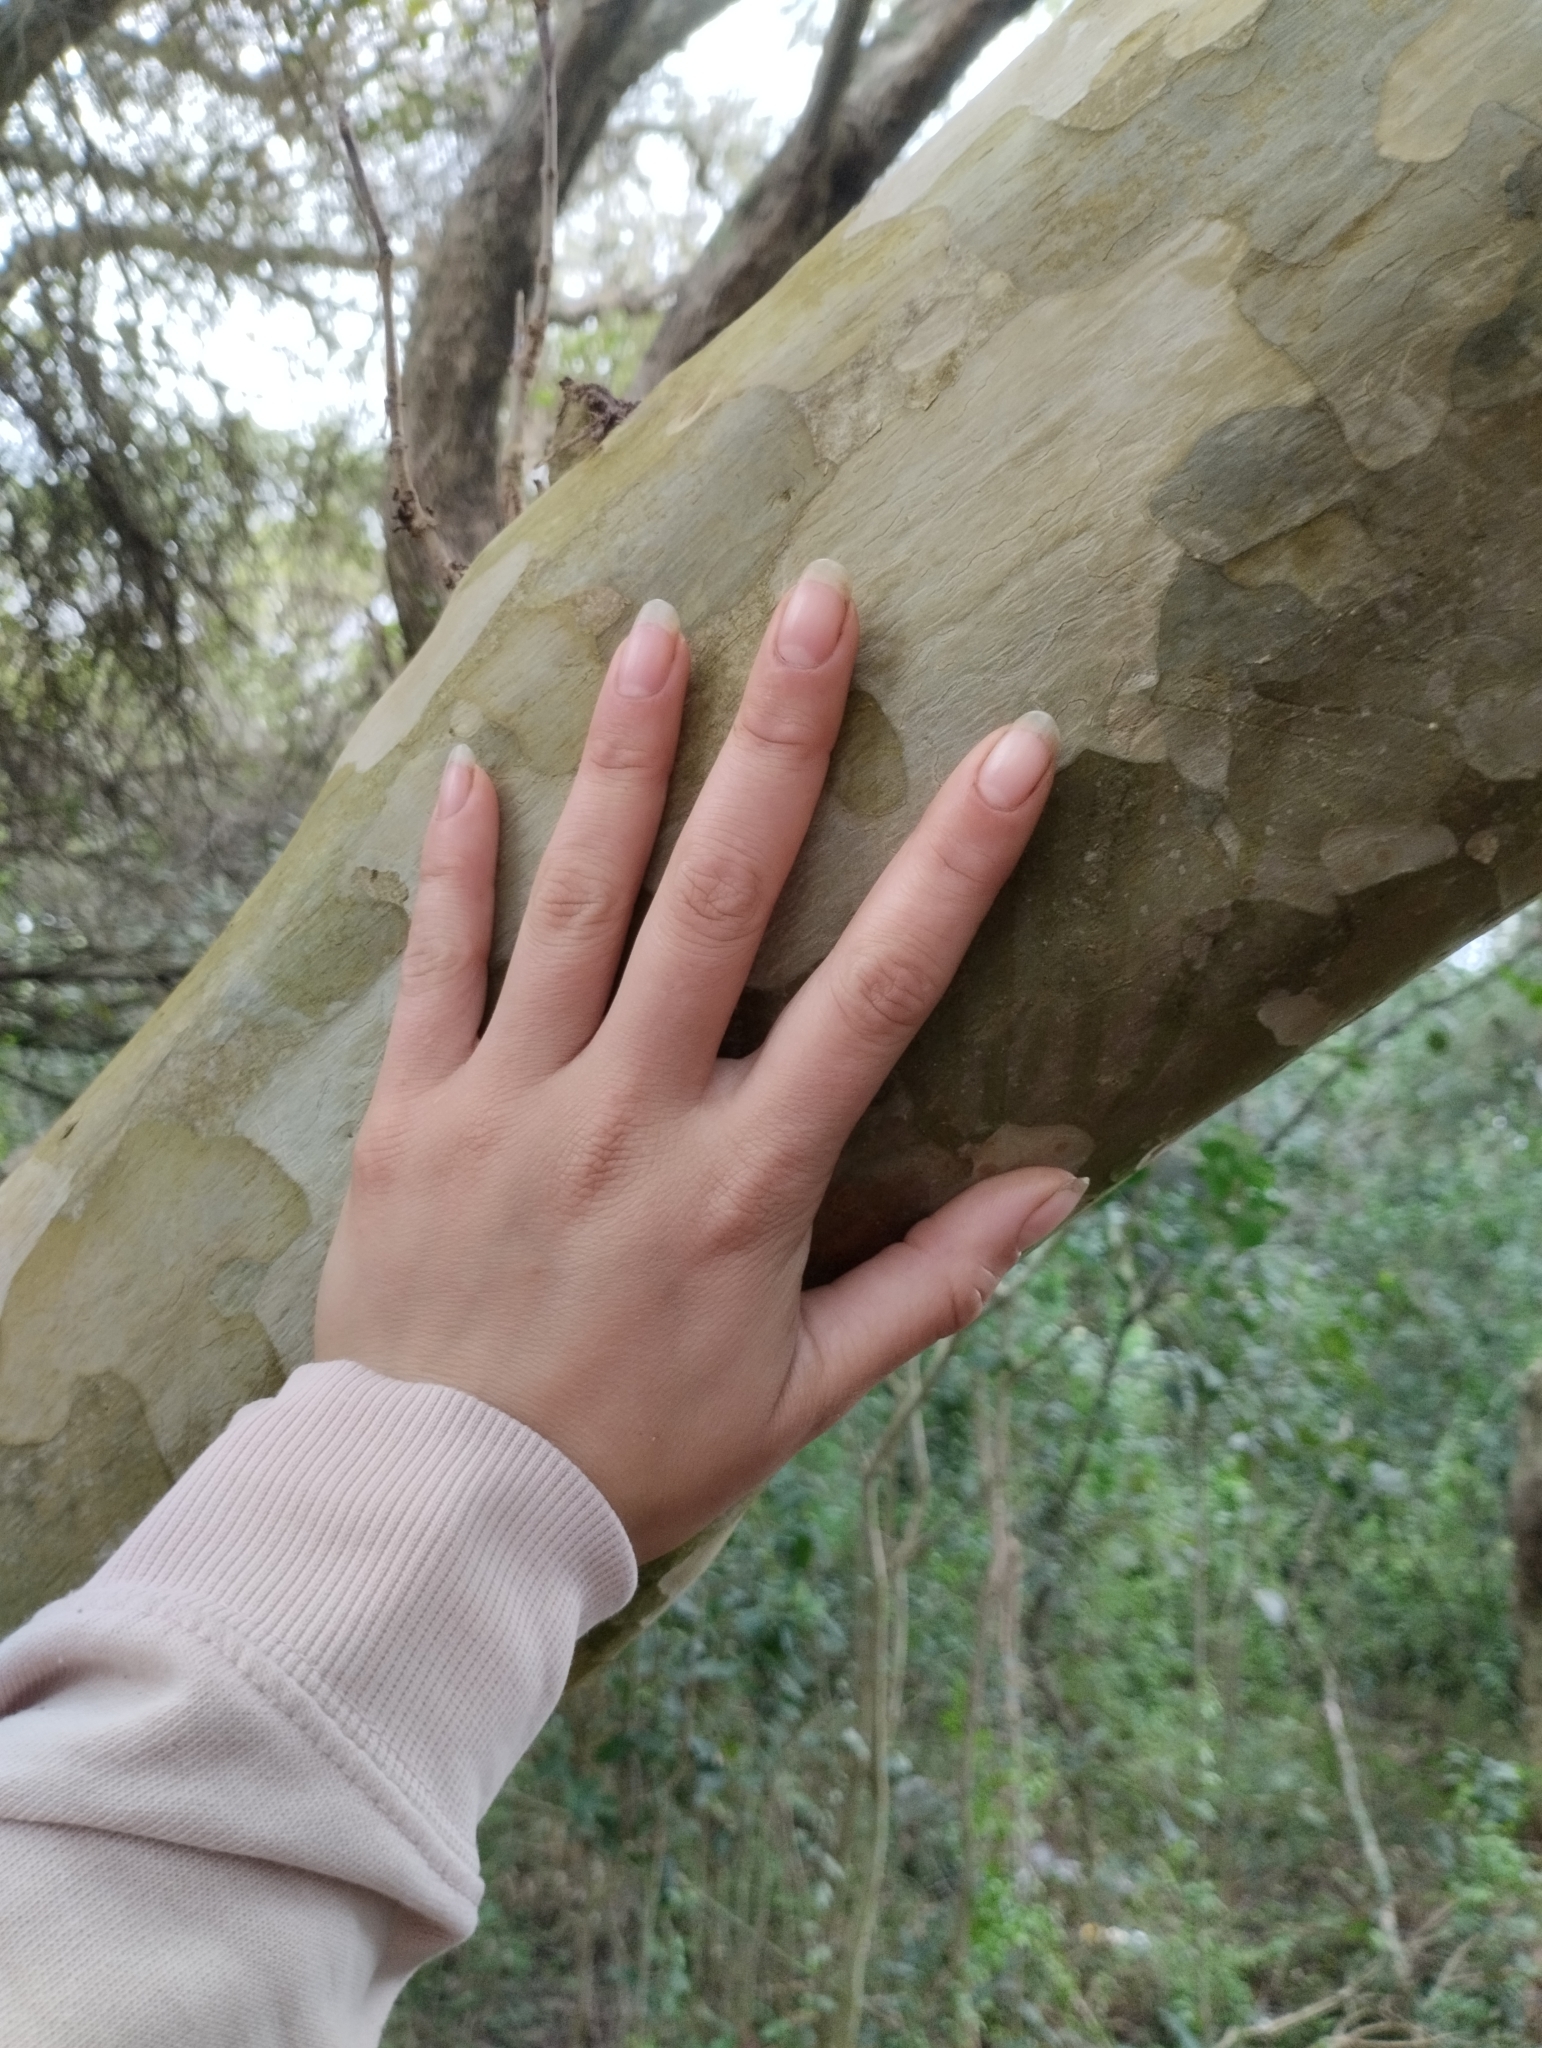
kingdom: Plantae
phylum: Tracheophyta
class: Magnoliopsida
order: Myrtales
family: Myrtaceae
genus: Myrcianthes
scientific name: Myrcianthes cisplatensis
